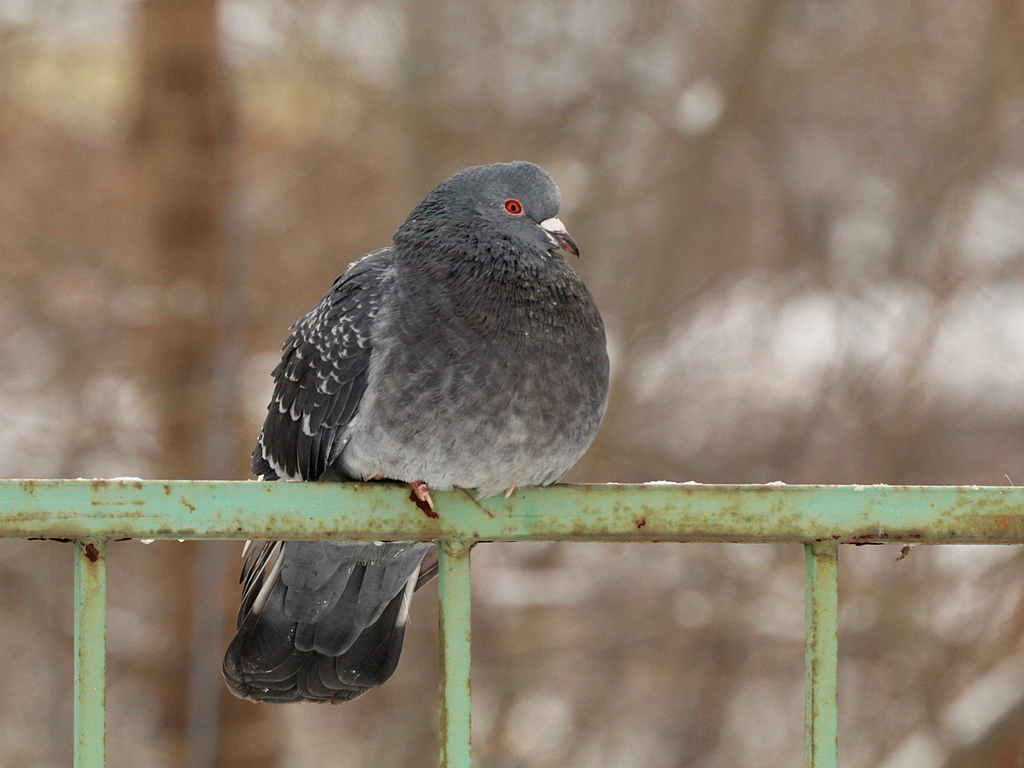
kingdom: Animalia
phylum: Chordata
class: Aves
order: Columbiformes
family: Columbidae
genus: Columba
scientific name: Columba livia
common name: Rock pigeon
